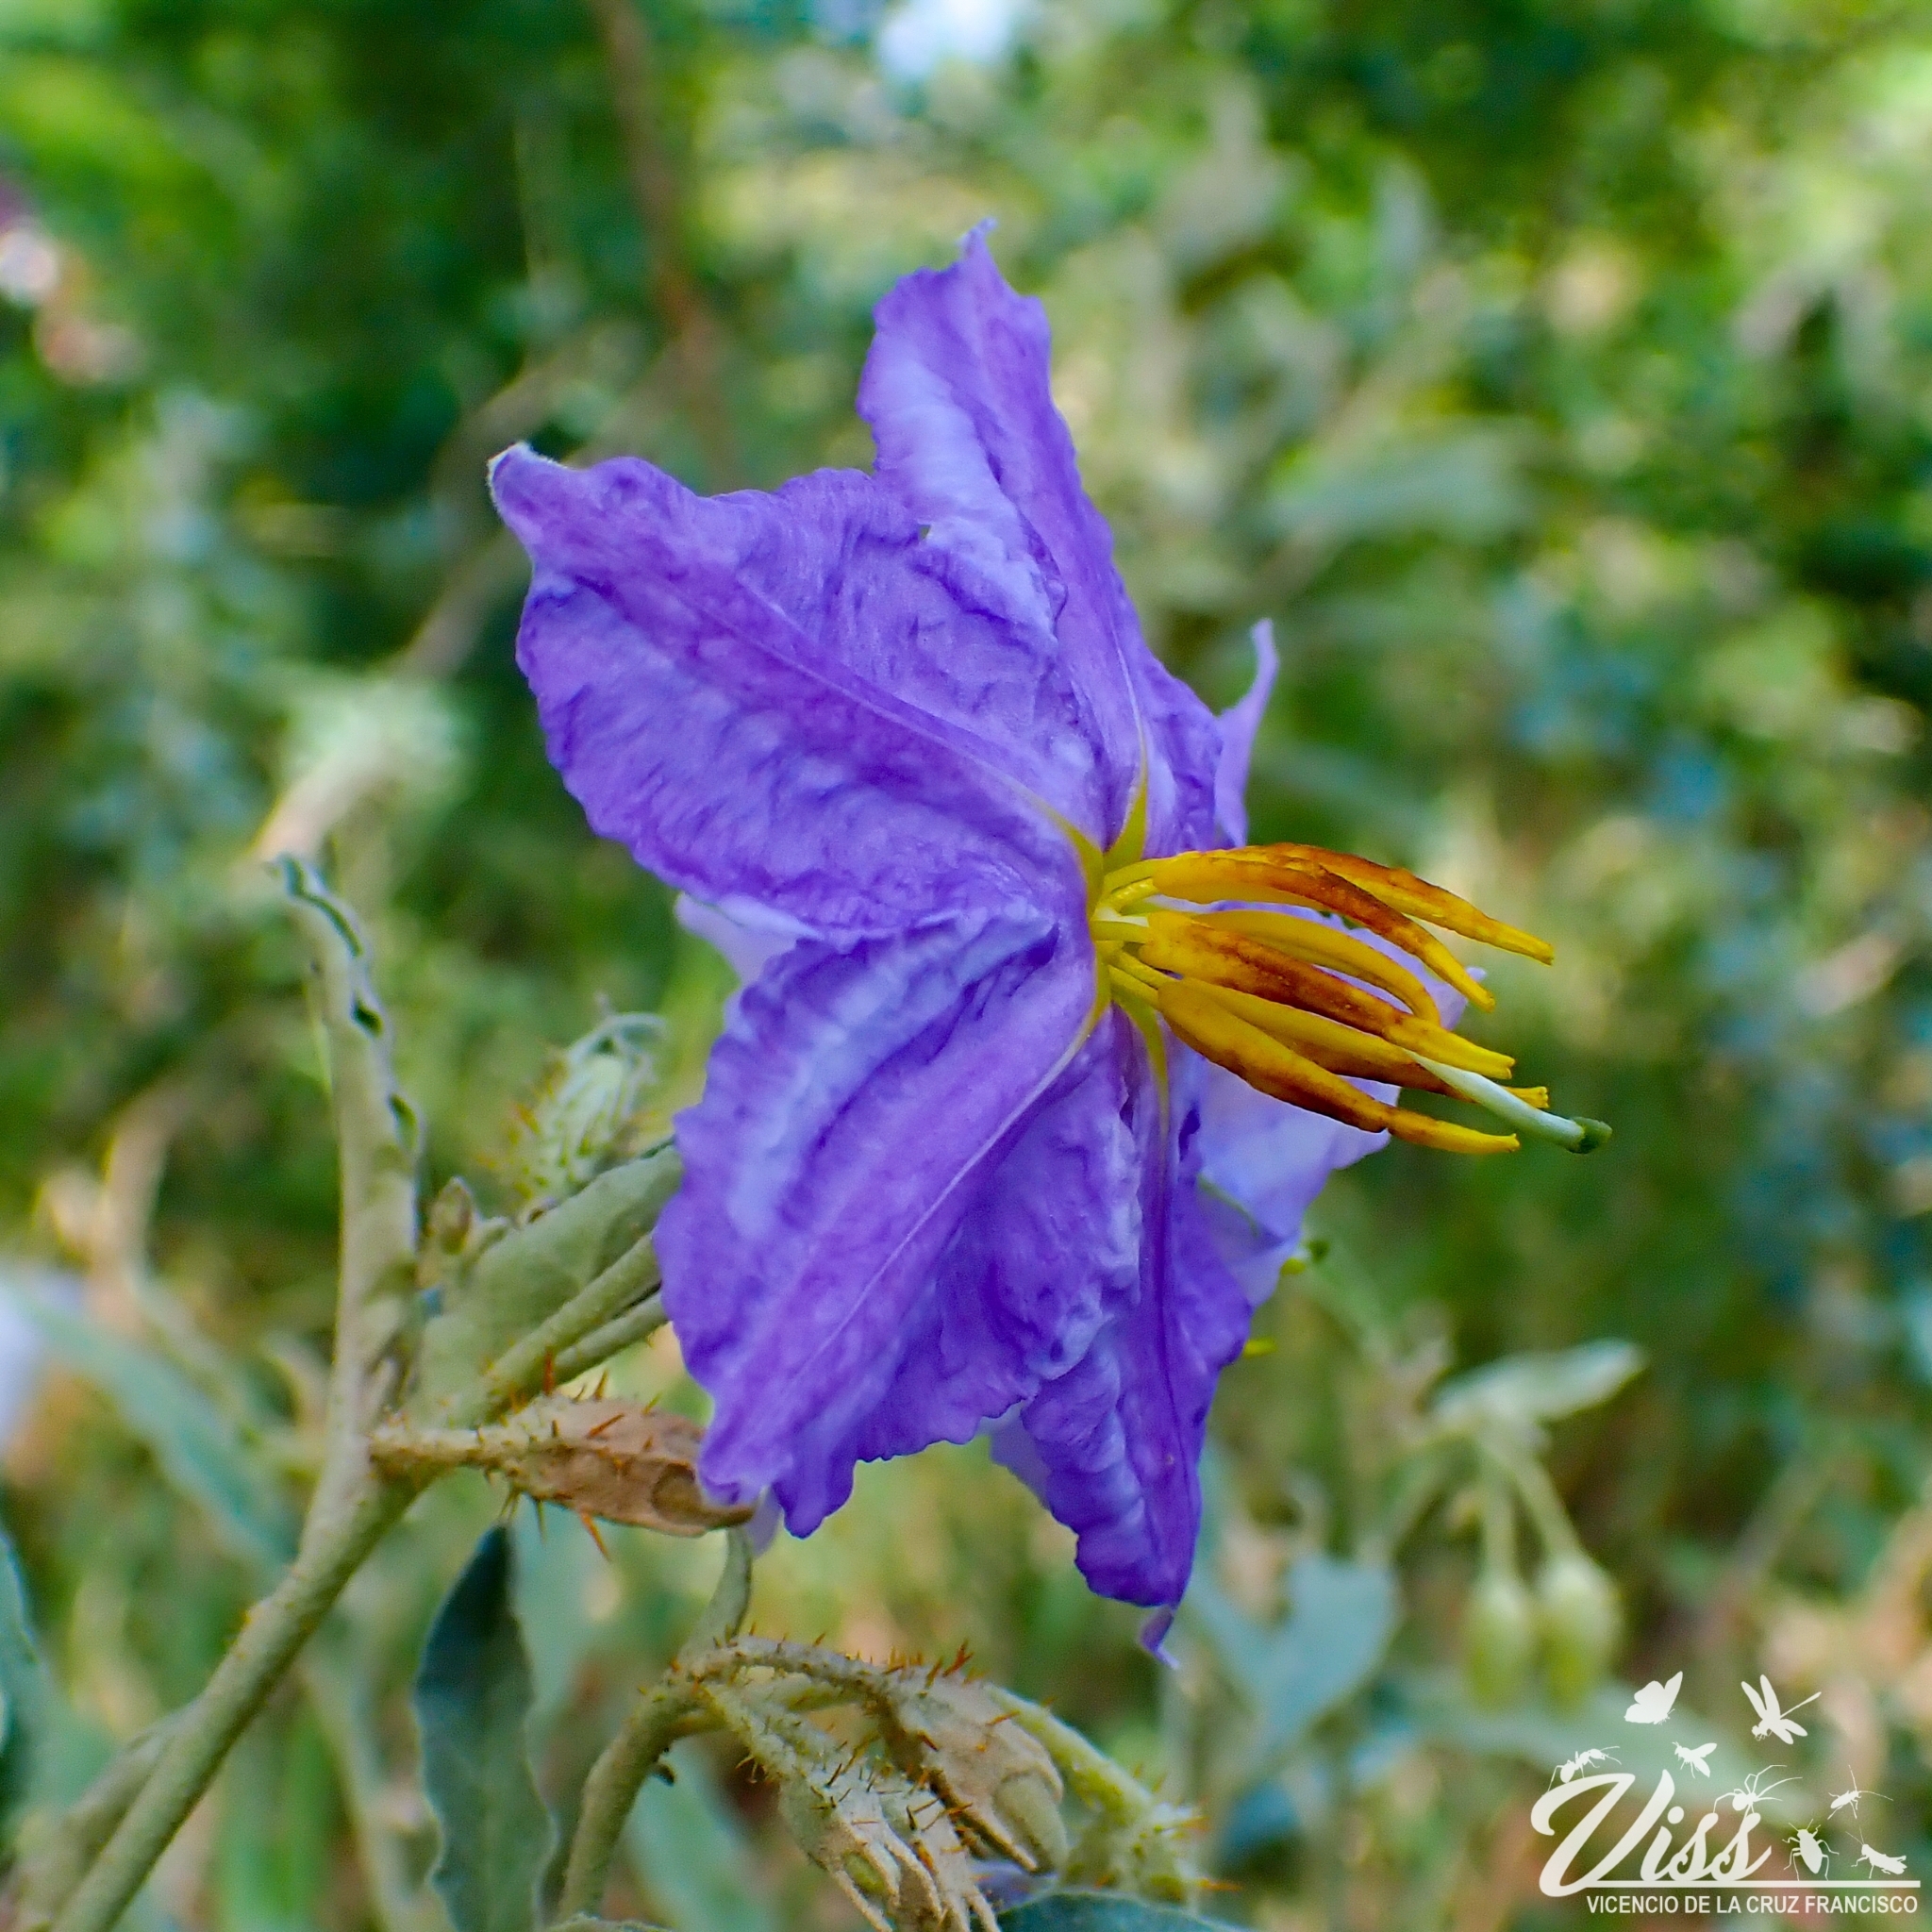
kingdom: Plantae
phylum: Tracheophyta
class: Magnoliopsida
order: Solanales
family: Solanaceae
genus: Solanum
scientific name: Solanum elaeagnifolium
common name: Silverleaf nightshade
